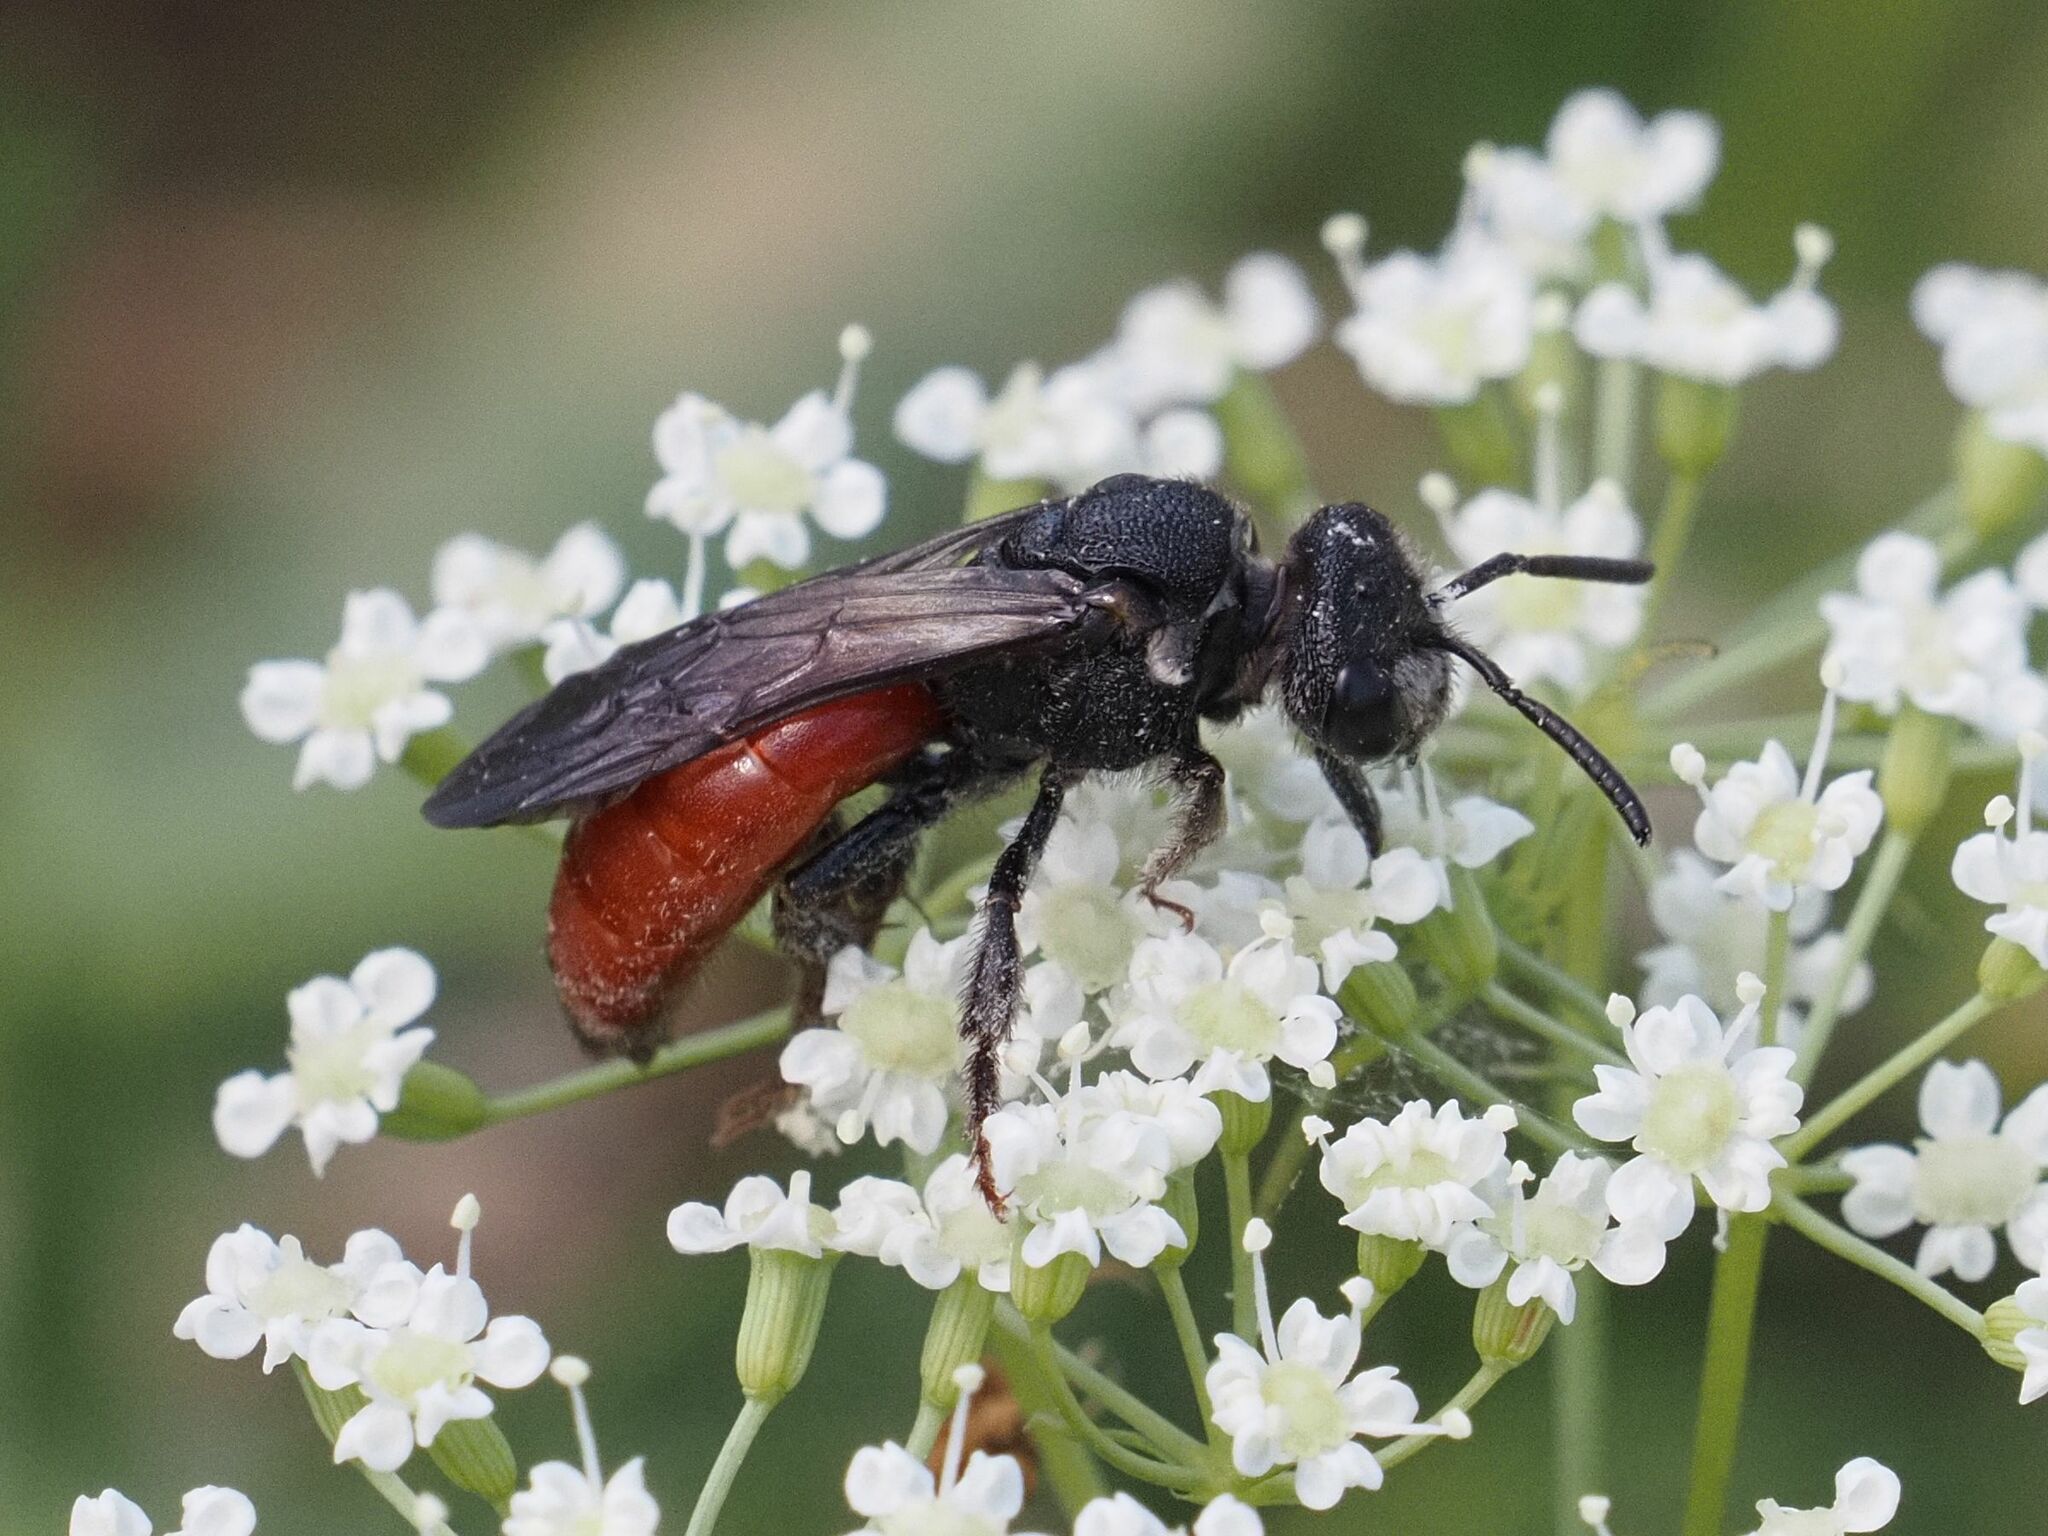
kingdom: Animalia
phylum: Arthropoda
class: Insecta
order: Hymenoptera
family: Halictidae
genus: Sphecodes
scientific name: Sphecodes albilabris
